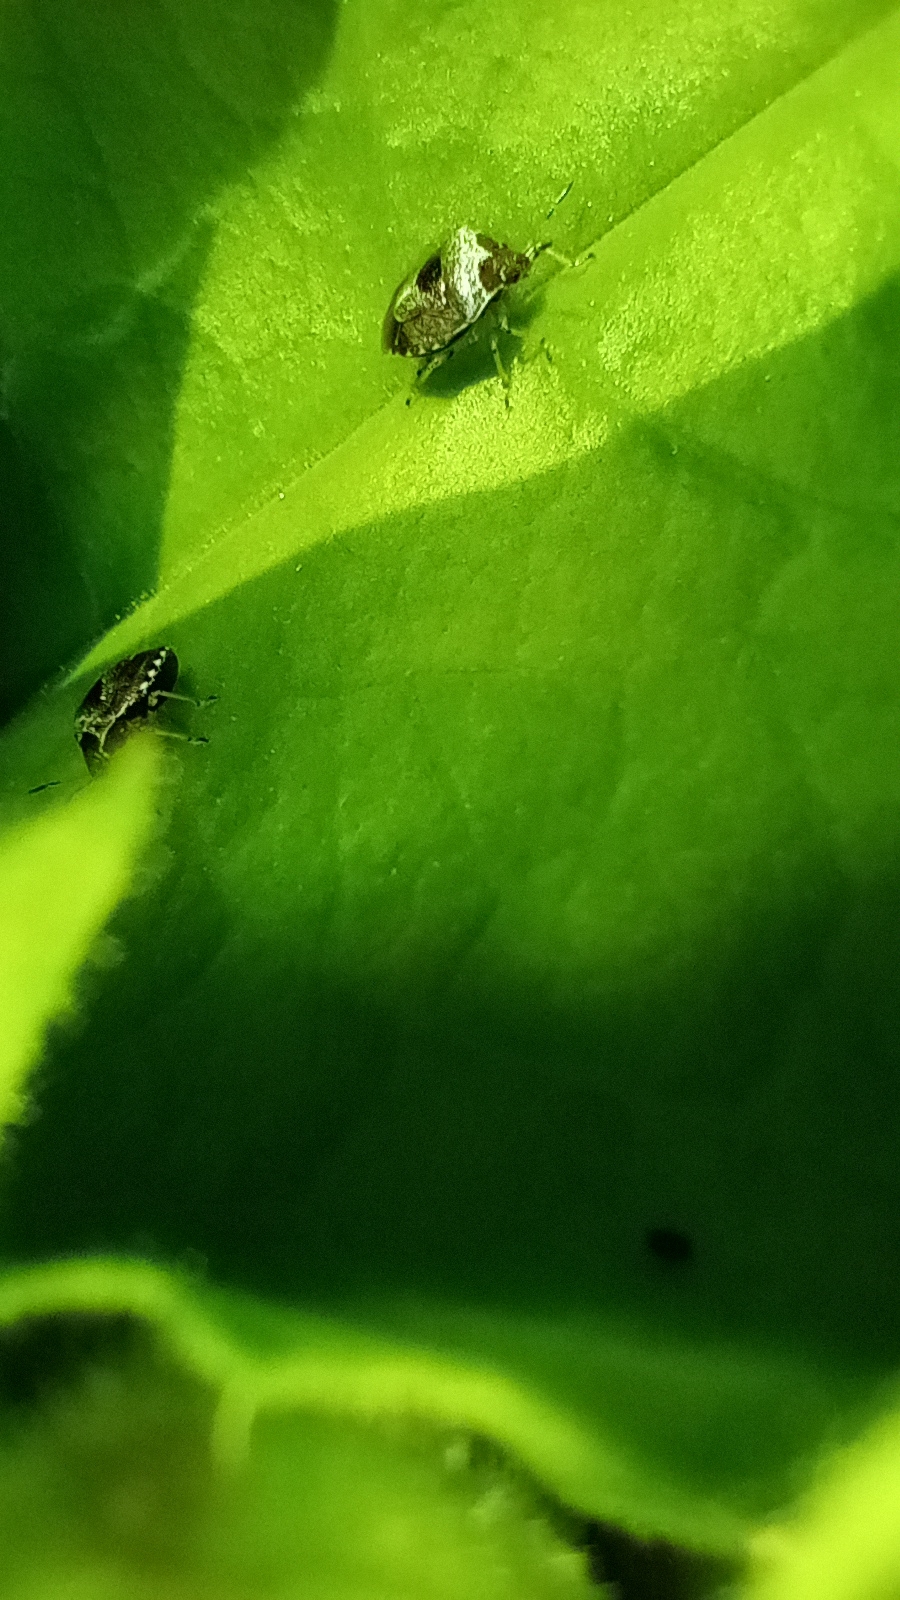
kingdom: Animalia
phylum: Arthropoda
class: Insecta
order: Hemiptera
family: Pentatomidae
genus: Eysarcoris
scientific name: Eysarcoris venustissimus
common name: Woundwort shieldbug
